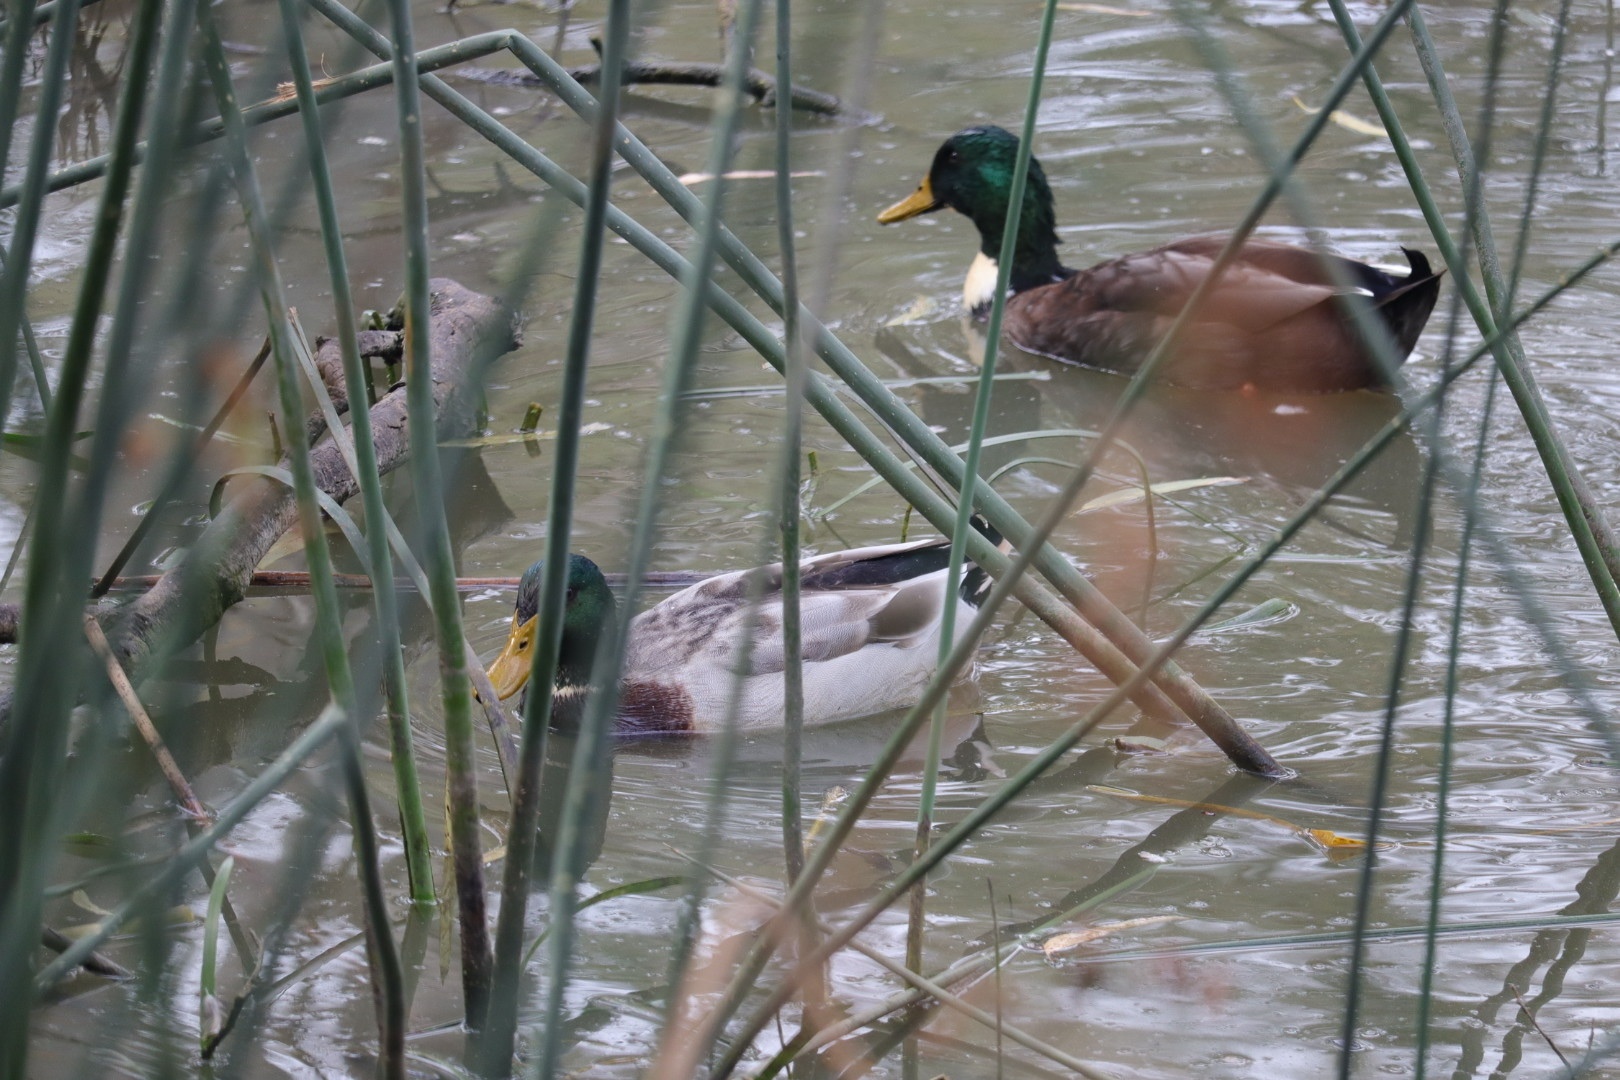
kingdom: Animalia
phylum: Chordata
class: Aves
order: Anseriformes
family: Anatidae
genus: Anas
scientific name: Anas platyrhynchos
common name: Mallard
